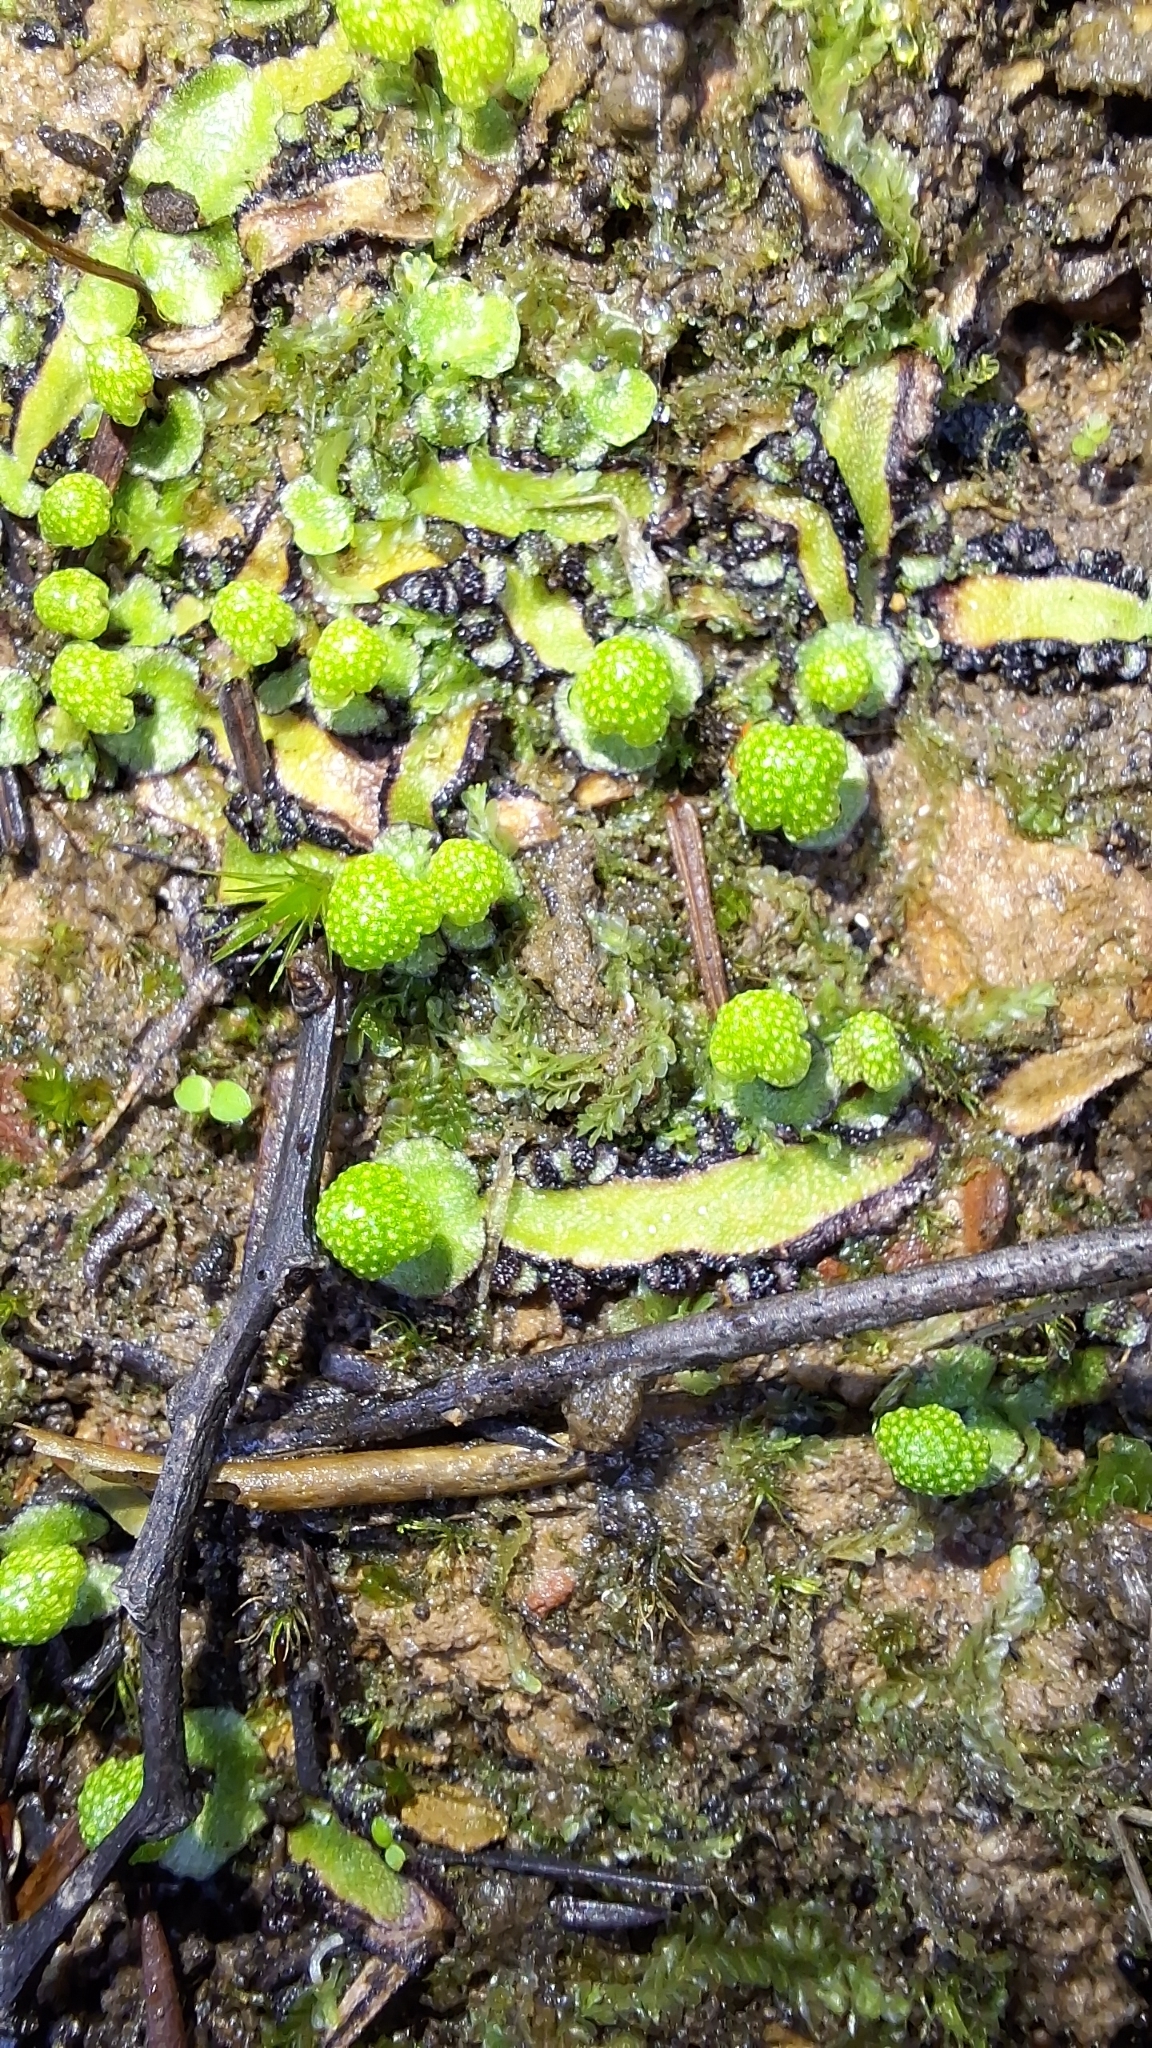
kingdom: Plantae
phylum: Marchantiophyta
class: Marchantiopsida
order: Marchantiales
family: Aytoniaceae
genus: Asterella
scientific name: Asterella drummondii
